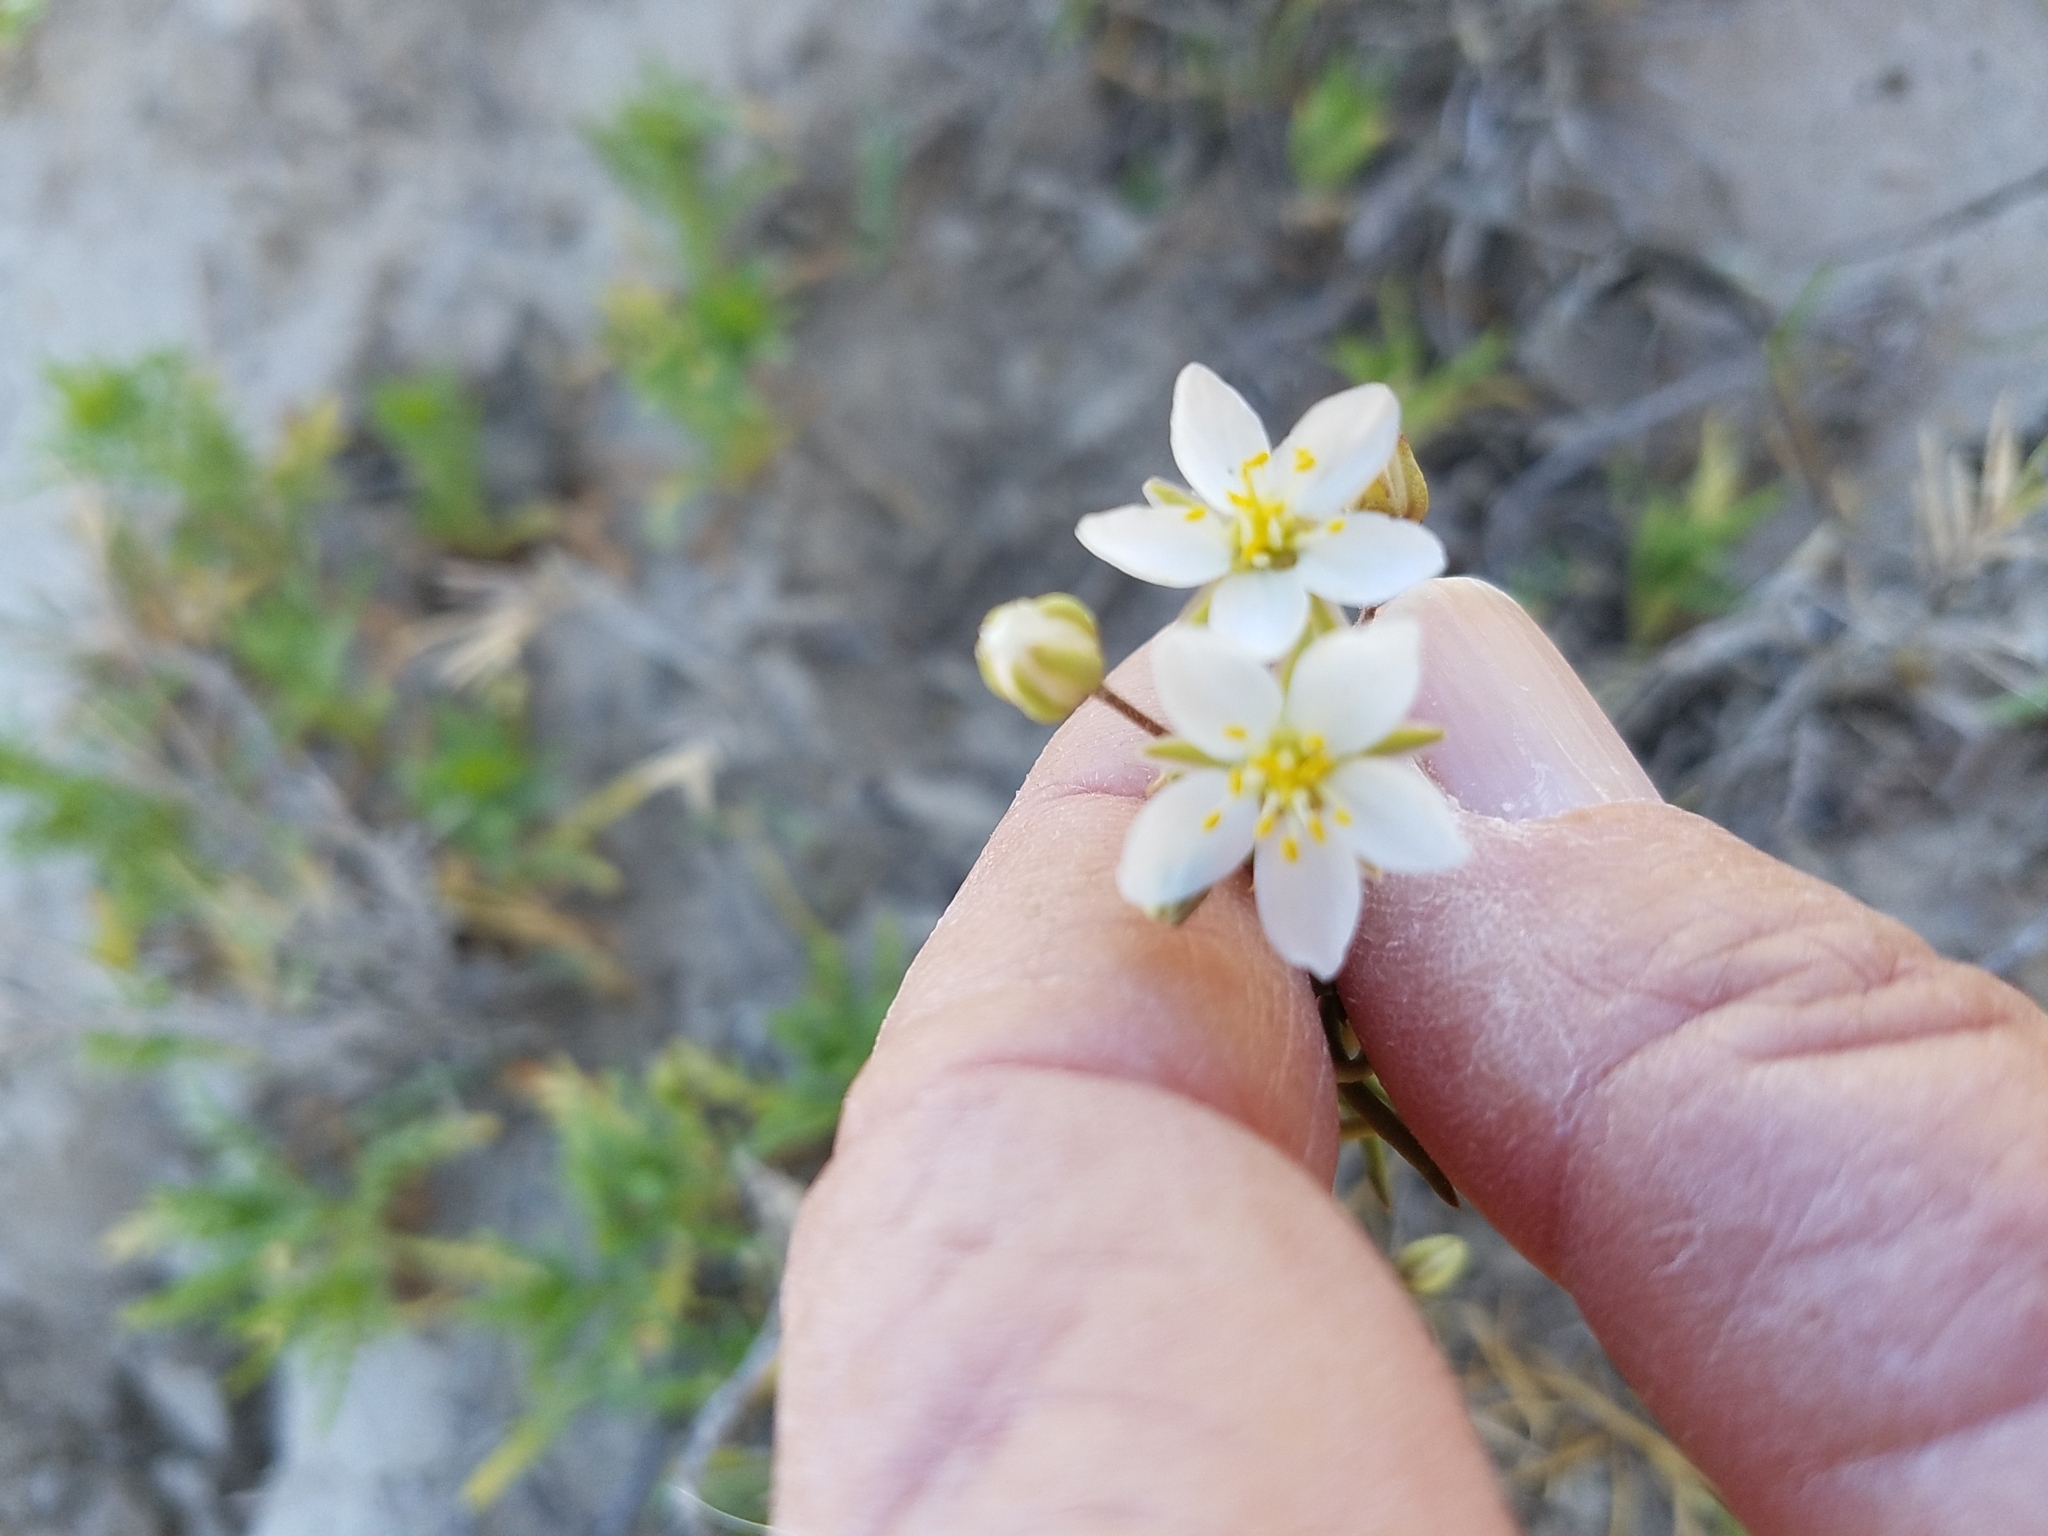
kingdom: Plantae
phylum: Tracheophyta
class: Magnoliopsida
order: Caryophyllales
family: Caryophyllaceae
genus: Spergularia
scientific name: Spergularia macrotheca
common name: Beach sand-spurrey
